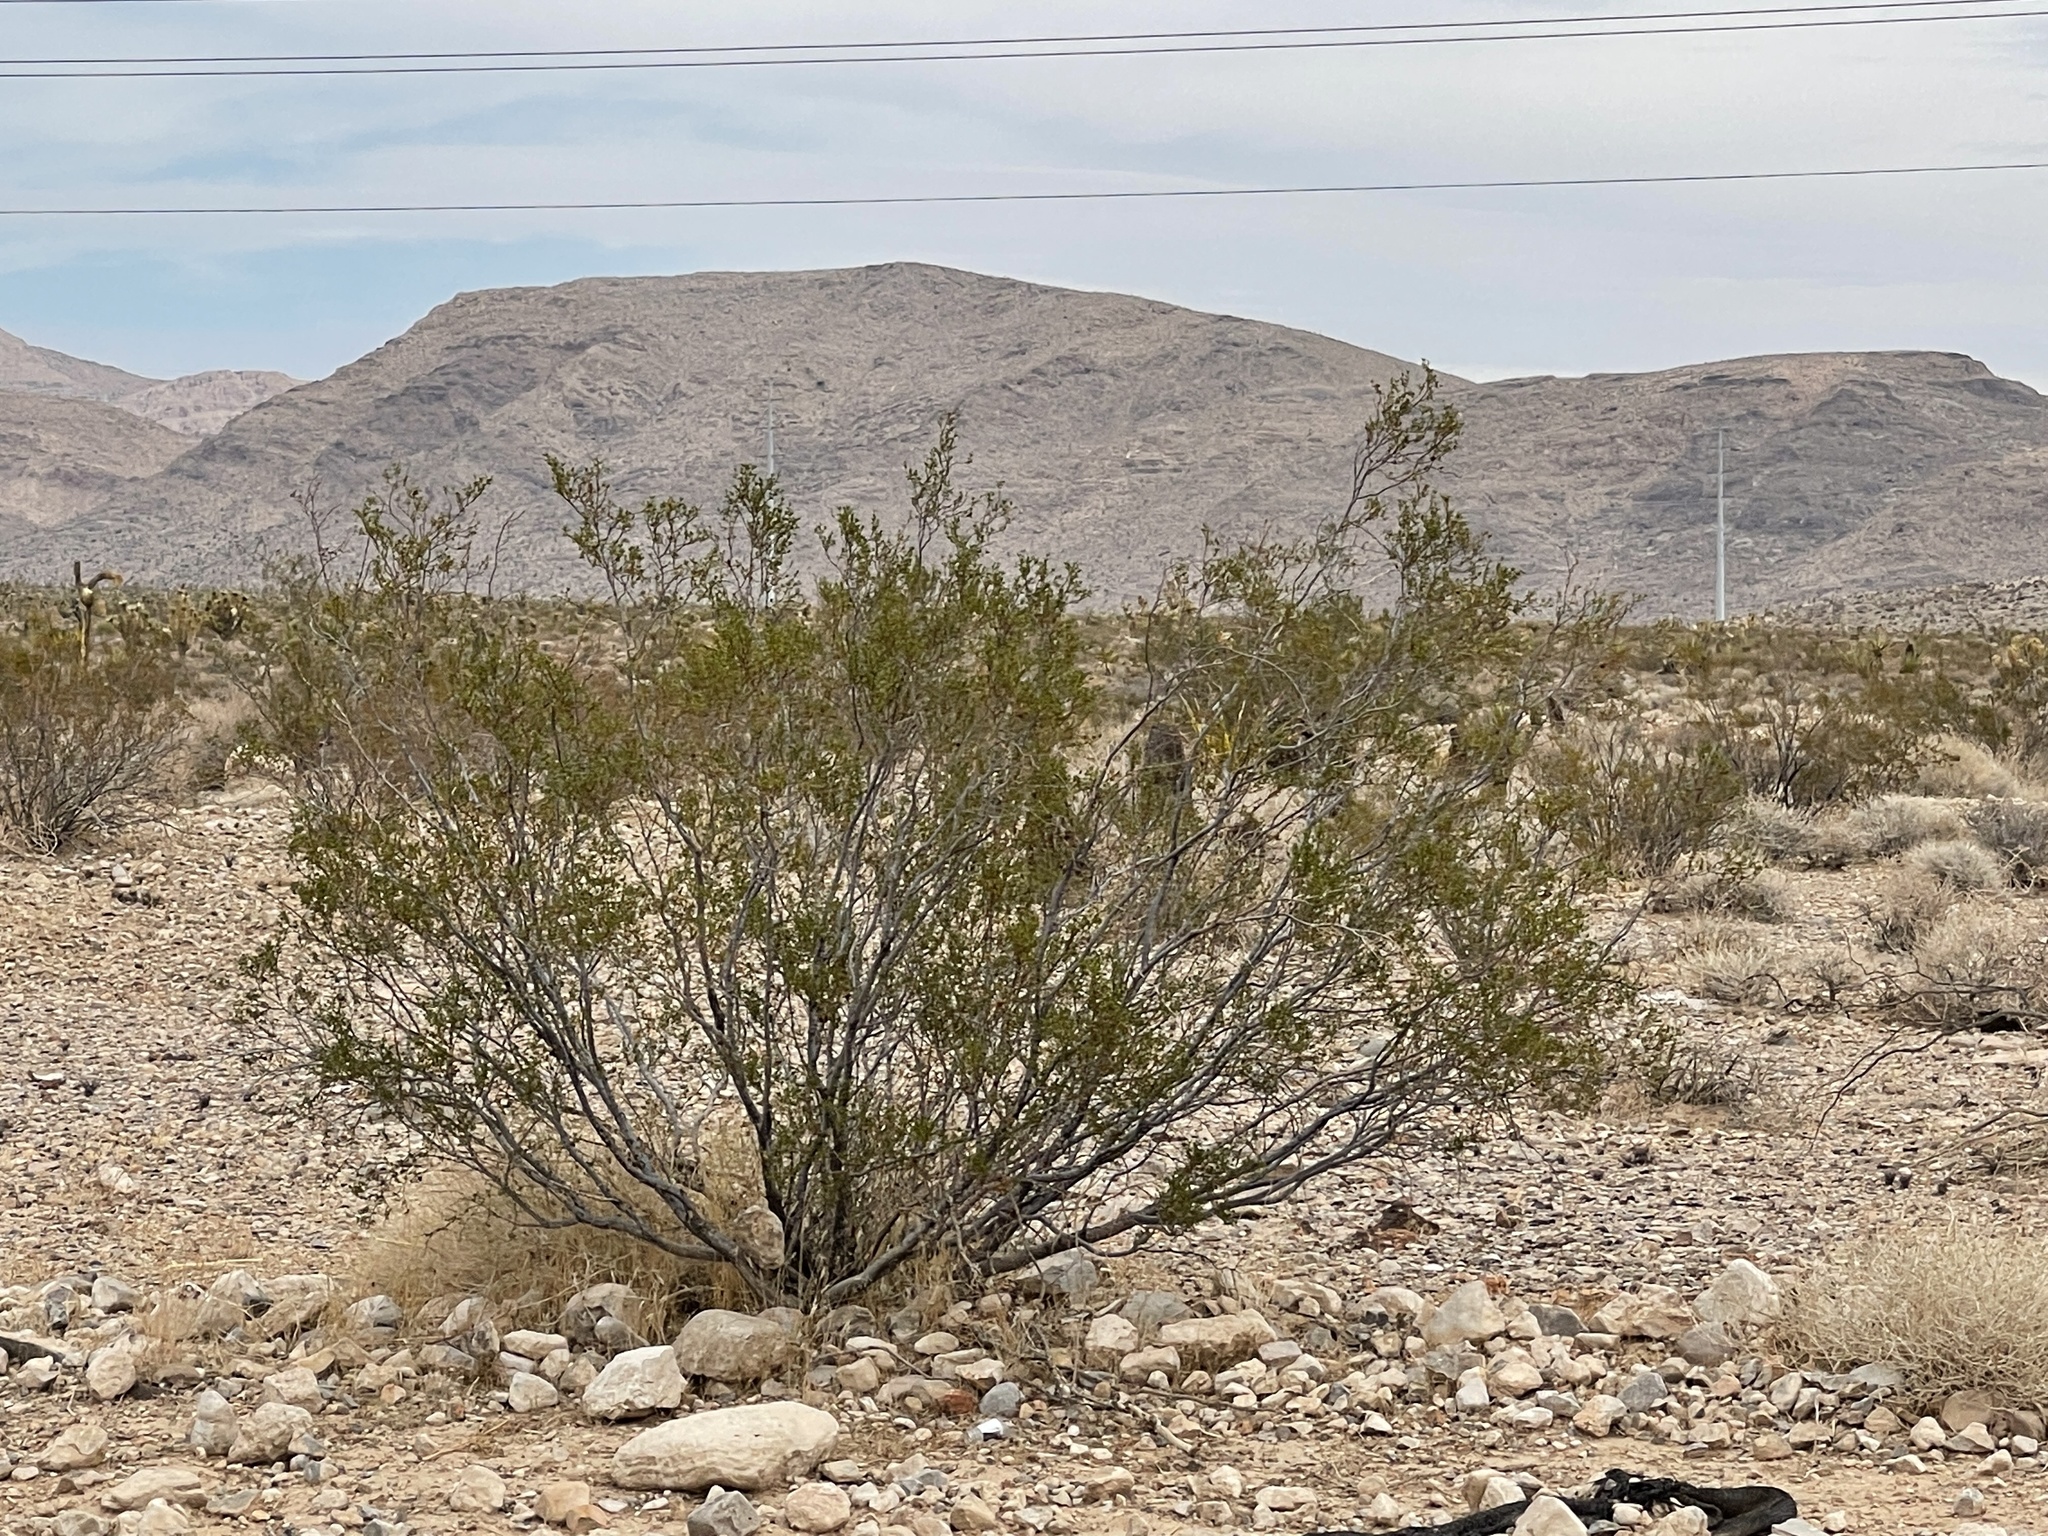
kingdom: Plantae
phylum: Tracheophyta
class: Magnoliopsida
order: Zygophyllales
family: Zygophyllaceae
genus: Larrea
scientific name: Larrea tridentata
